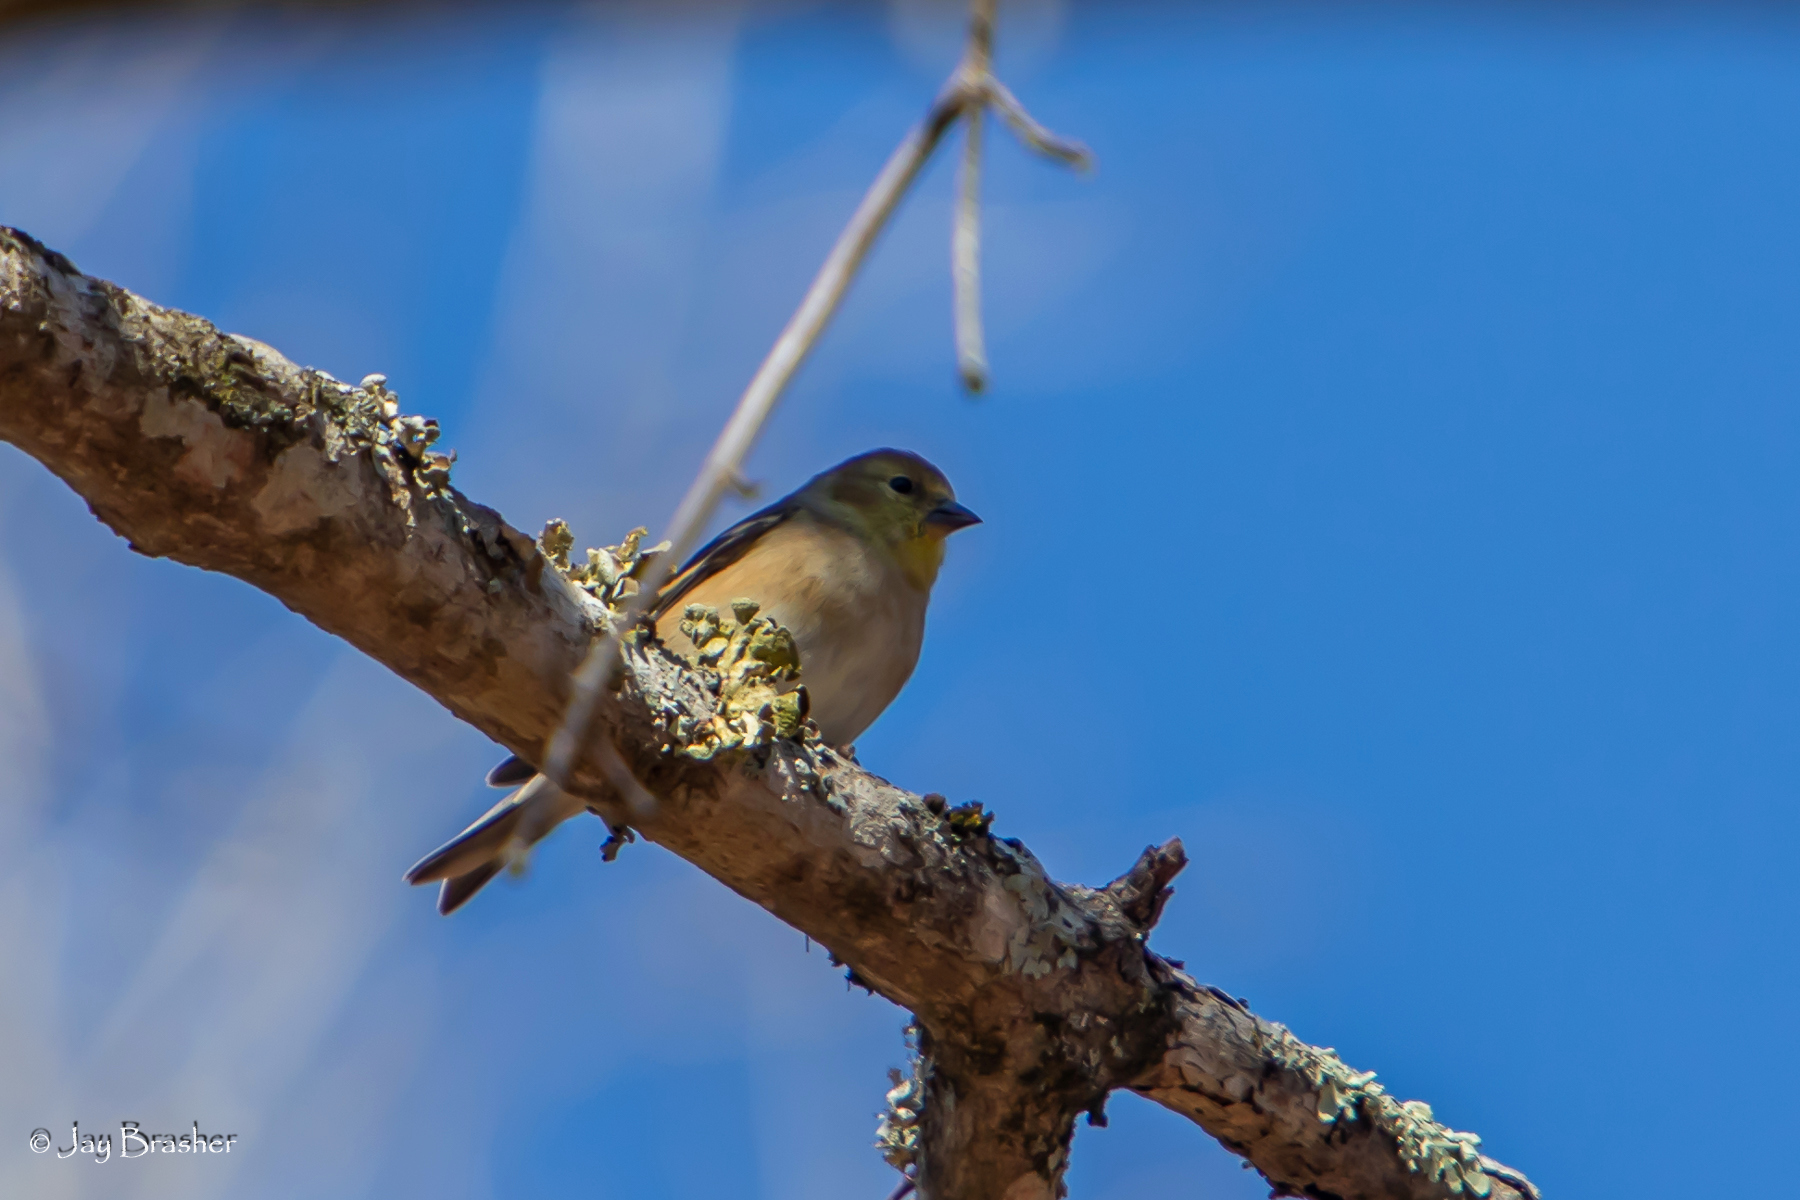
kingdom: Animalia
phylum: Chordata
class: Aves
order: Passeriformes
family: Fringillidae
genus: Spinus
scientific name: Spinus tristis
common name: American goldfinch
